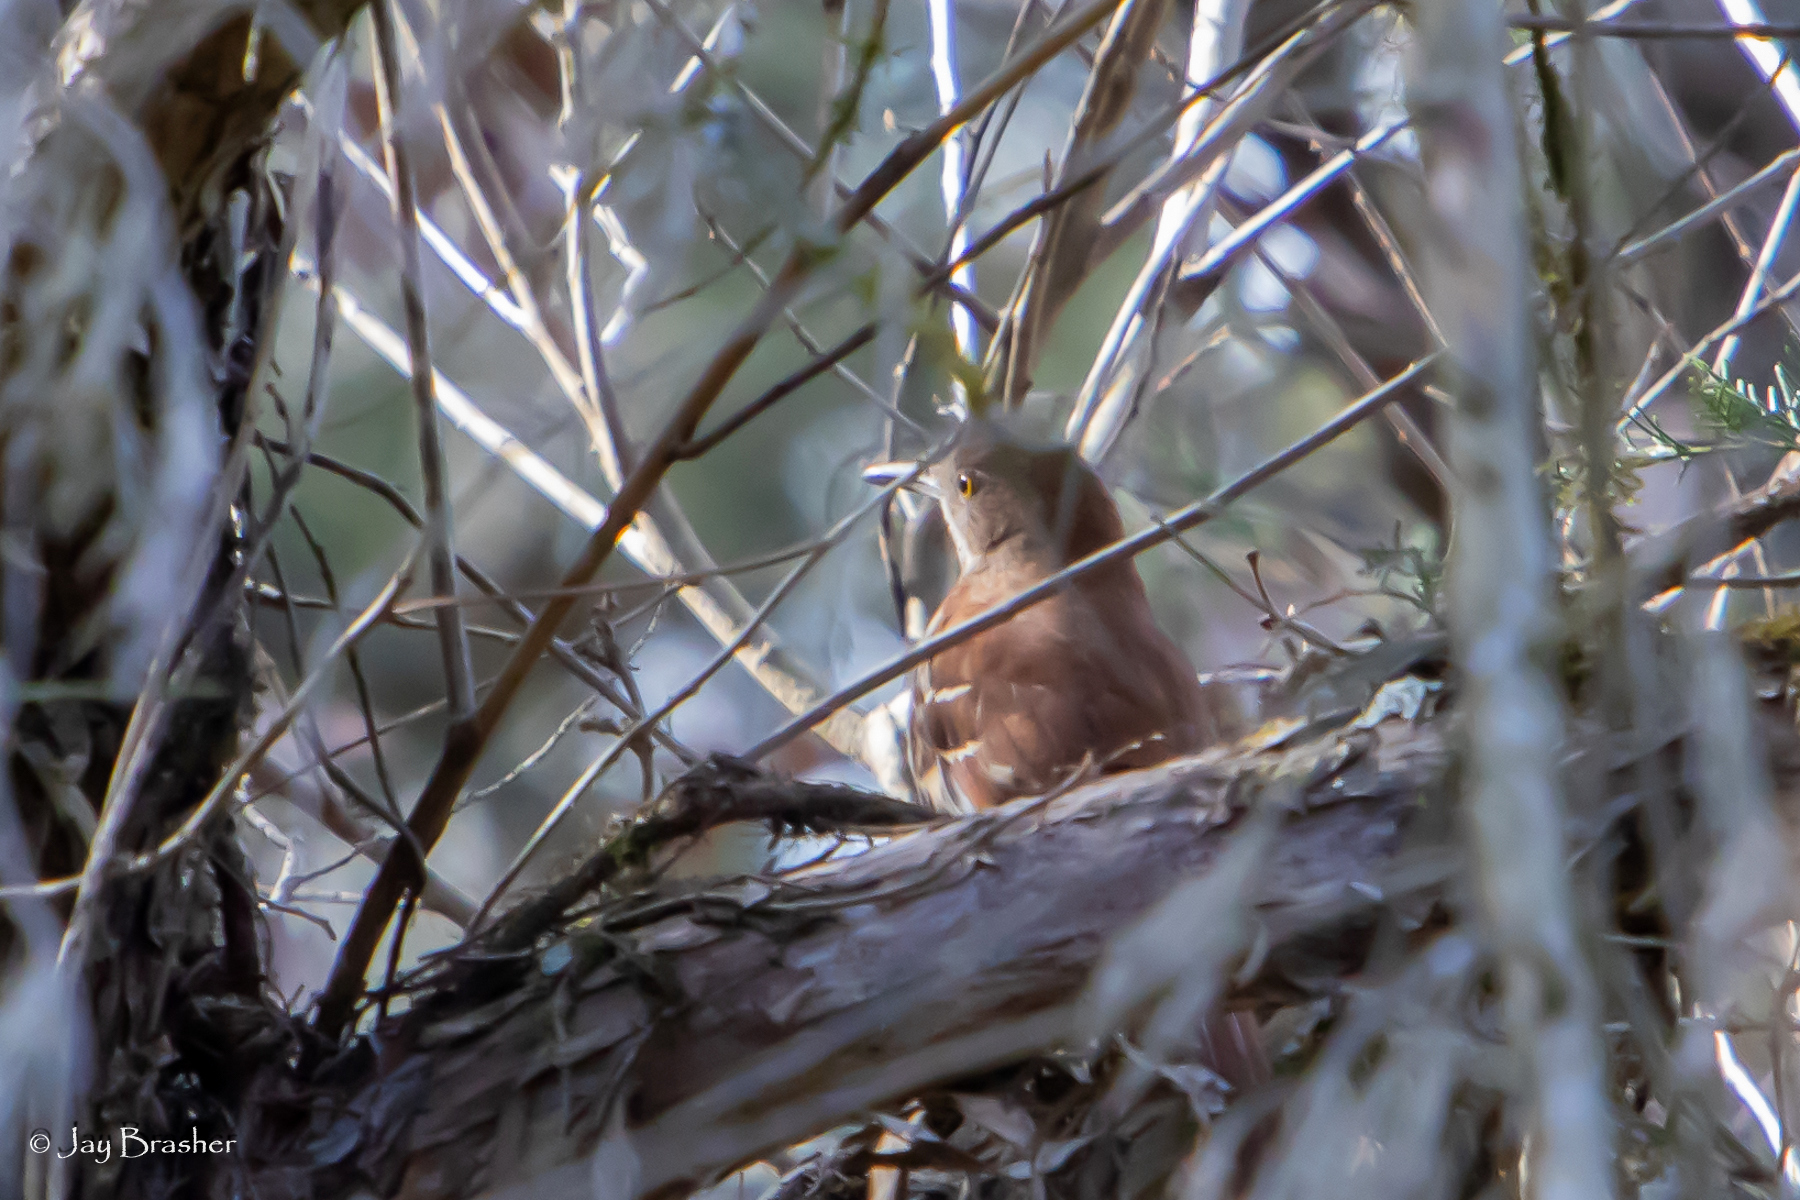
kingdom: Animalia
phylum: Chordata
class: Aves
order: Passeriformes
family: Mimidae
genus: Toxostoma
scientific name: Toxostoma rufum
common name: Brown thrasher
